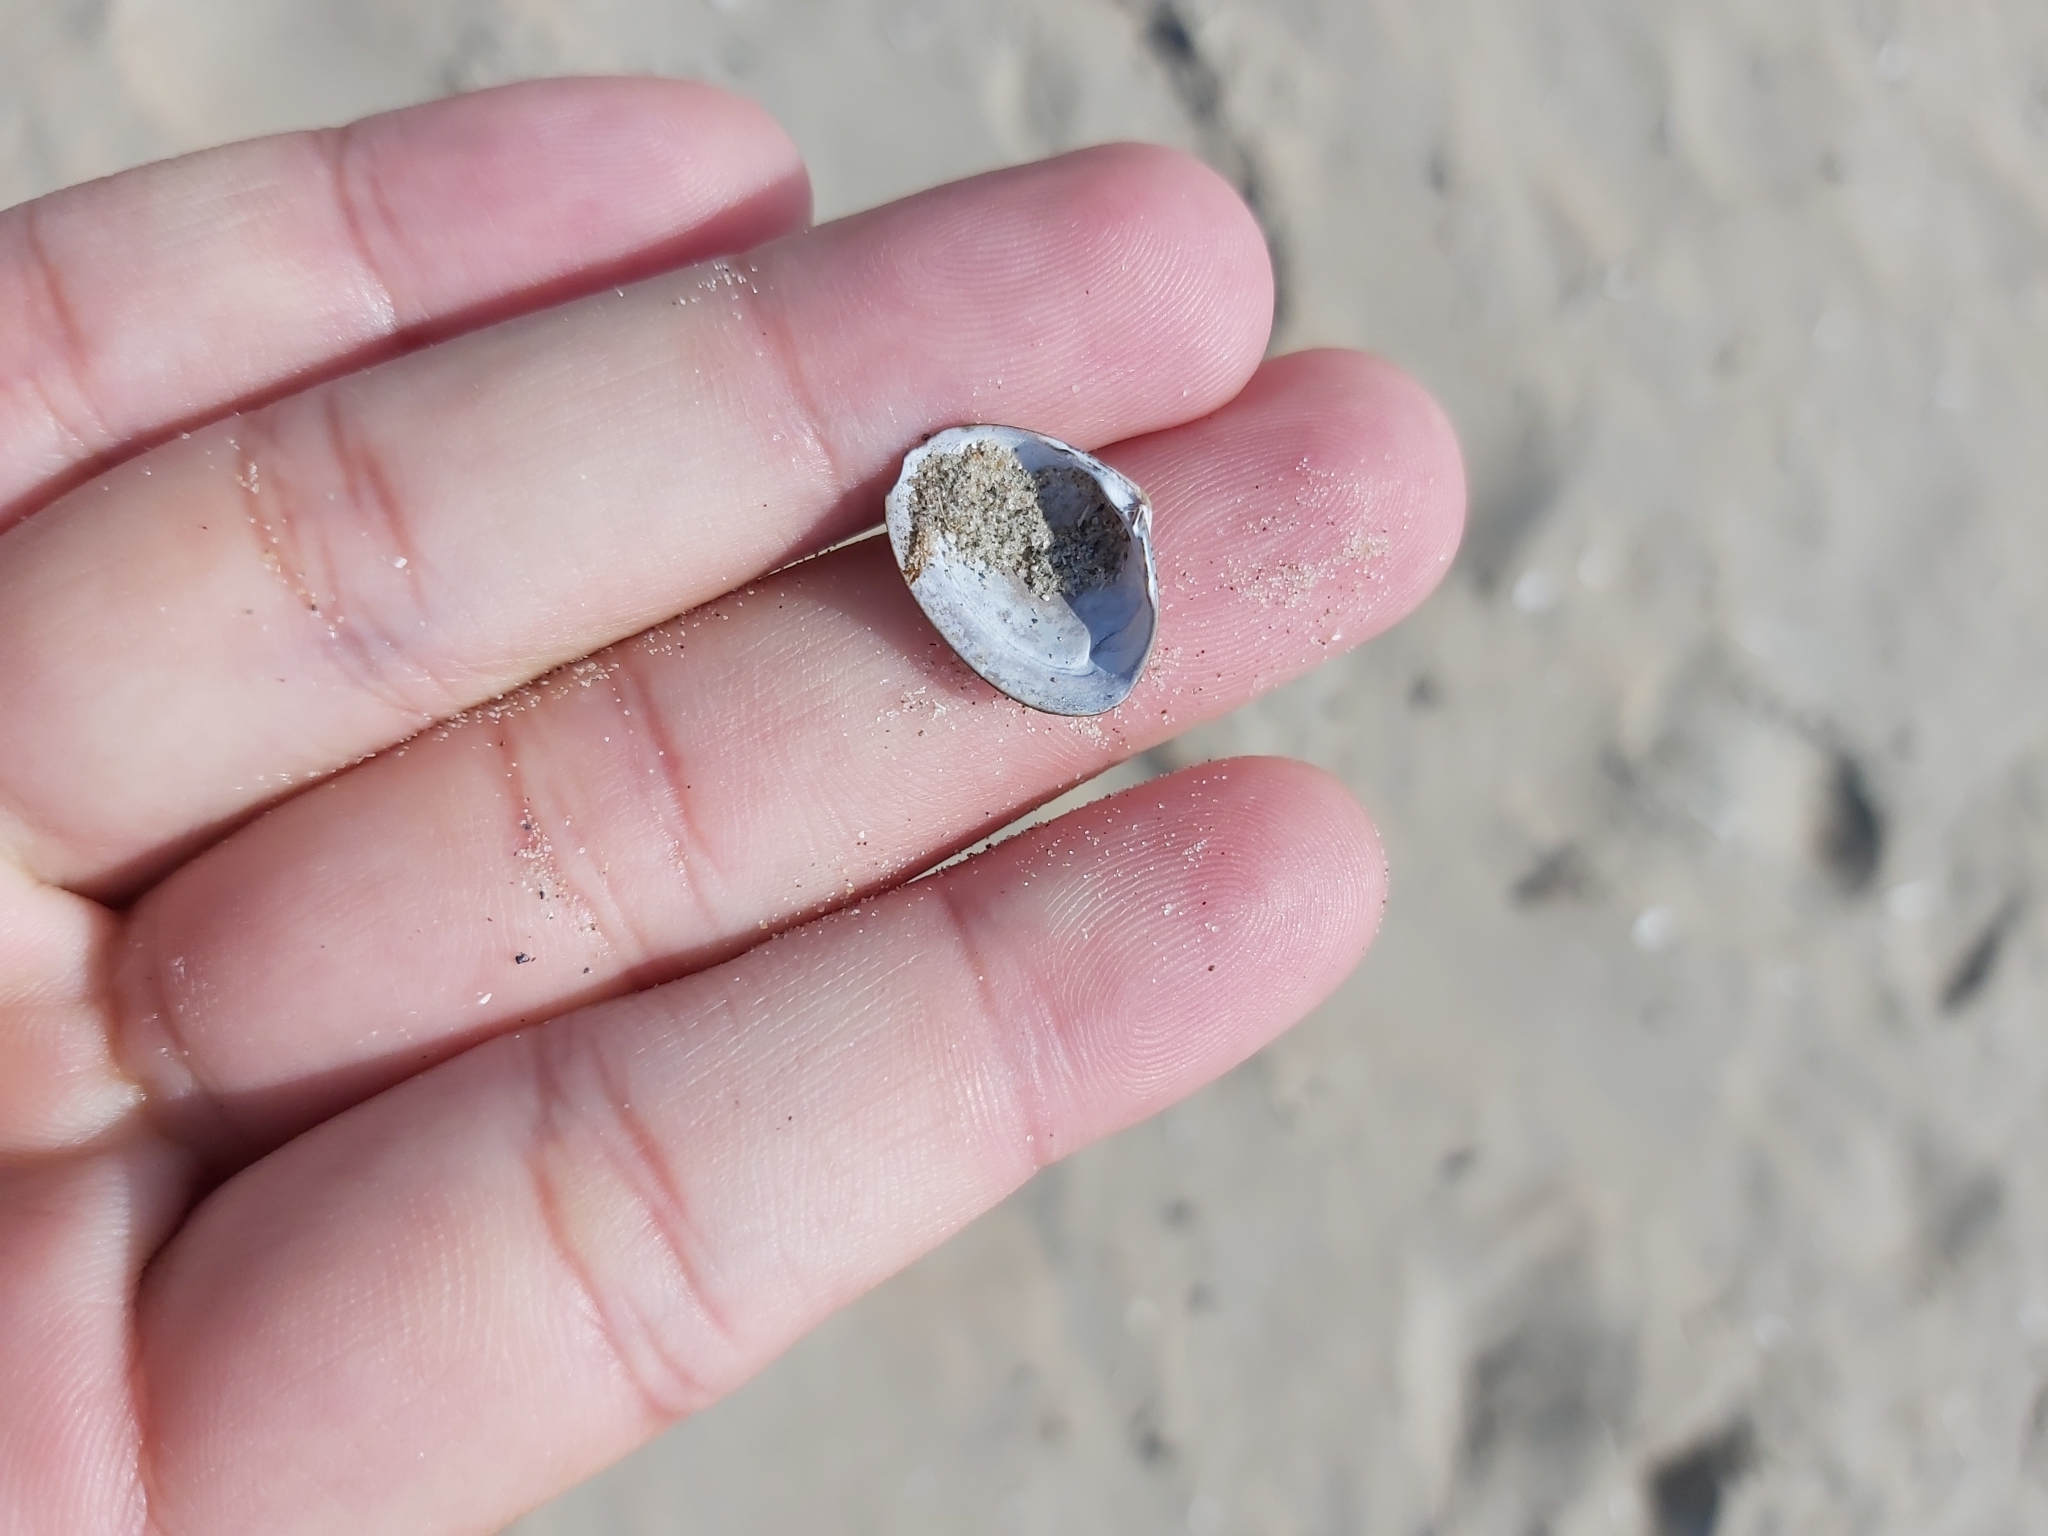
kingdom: Animalia
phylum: Mollusca
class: Bivalvia
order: Venerida
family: Mactridae
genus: Spisula
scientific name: Spisula elliptica
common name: Elliptic trough shell
